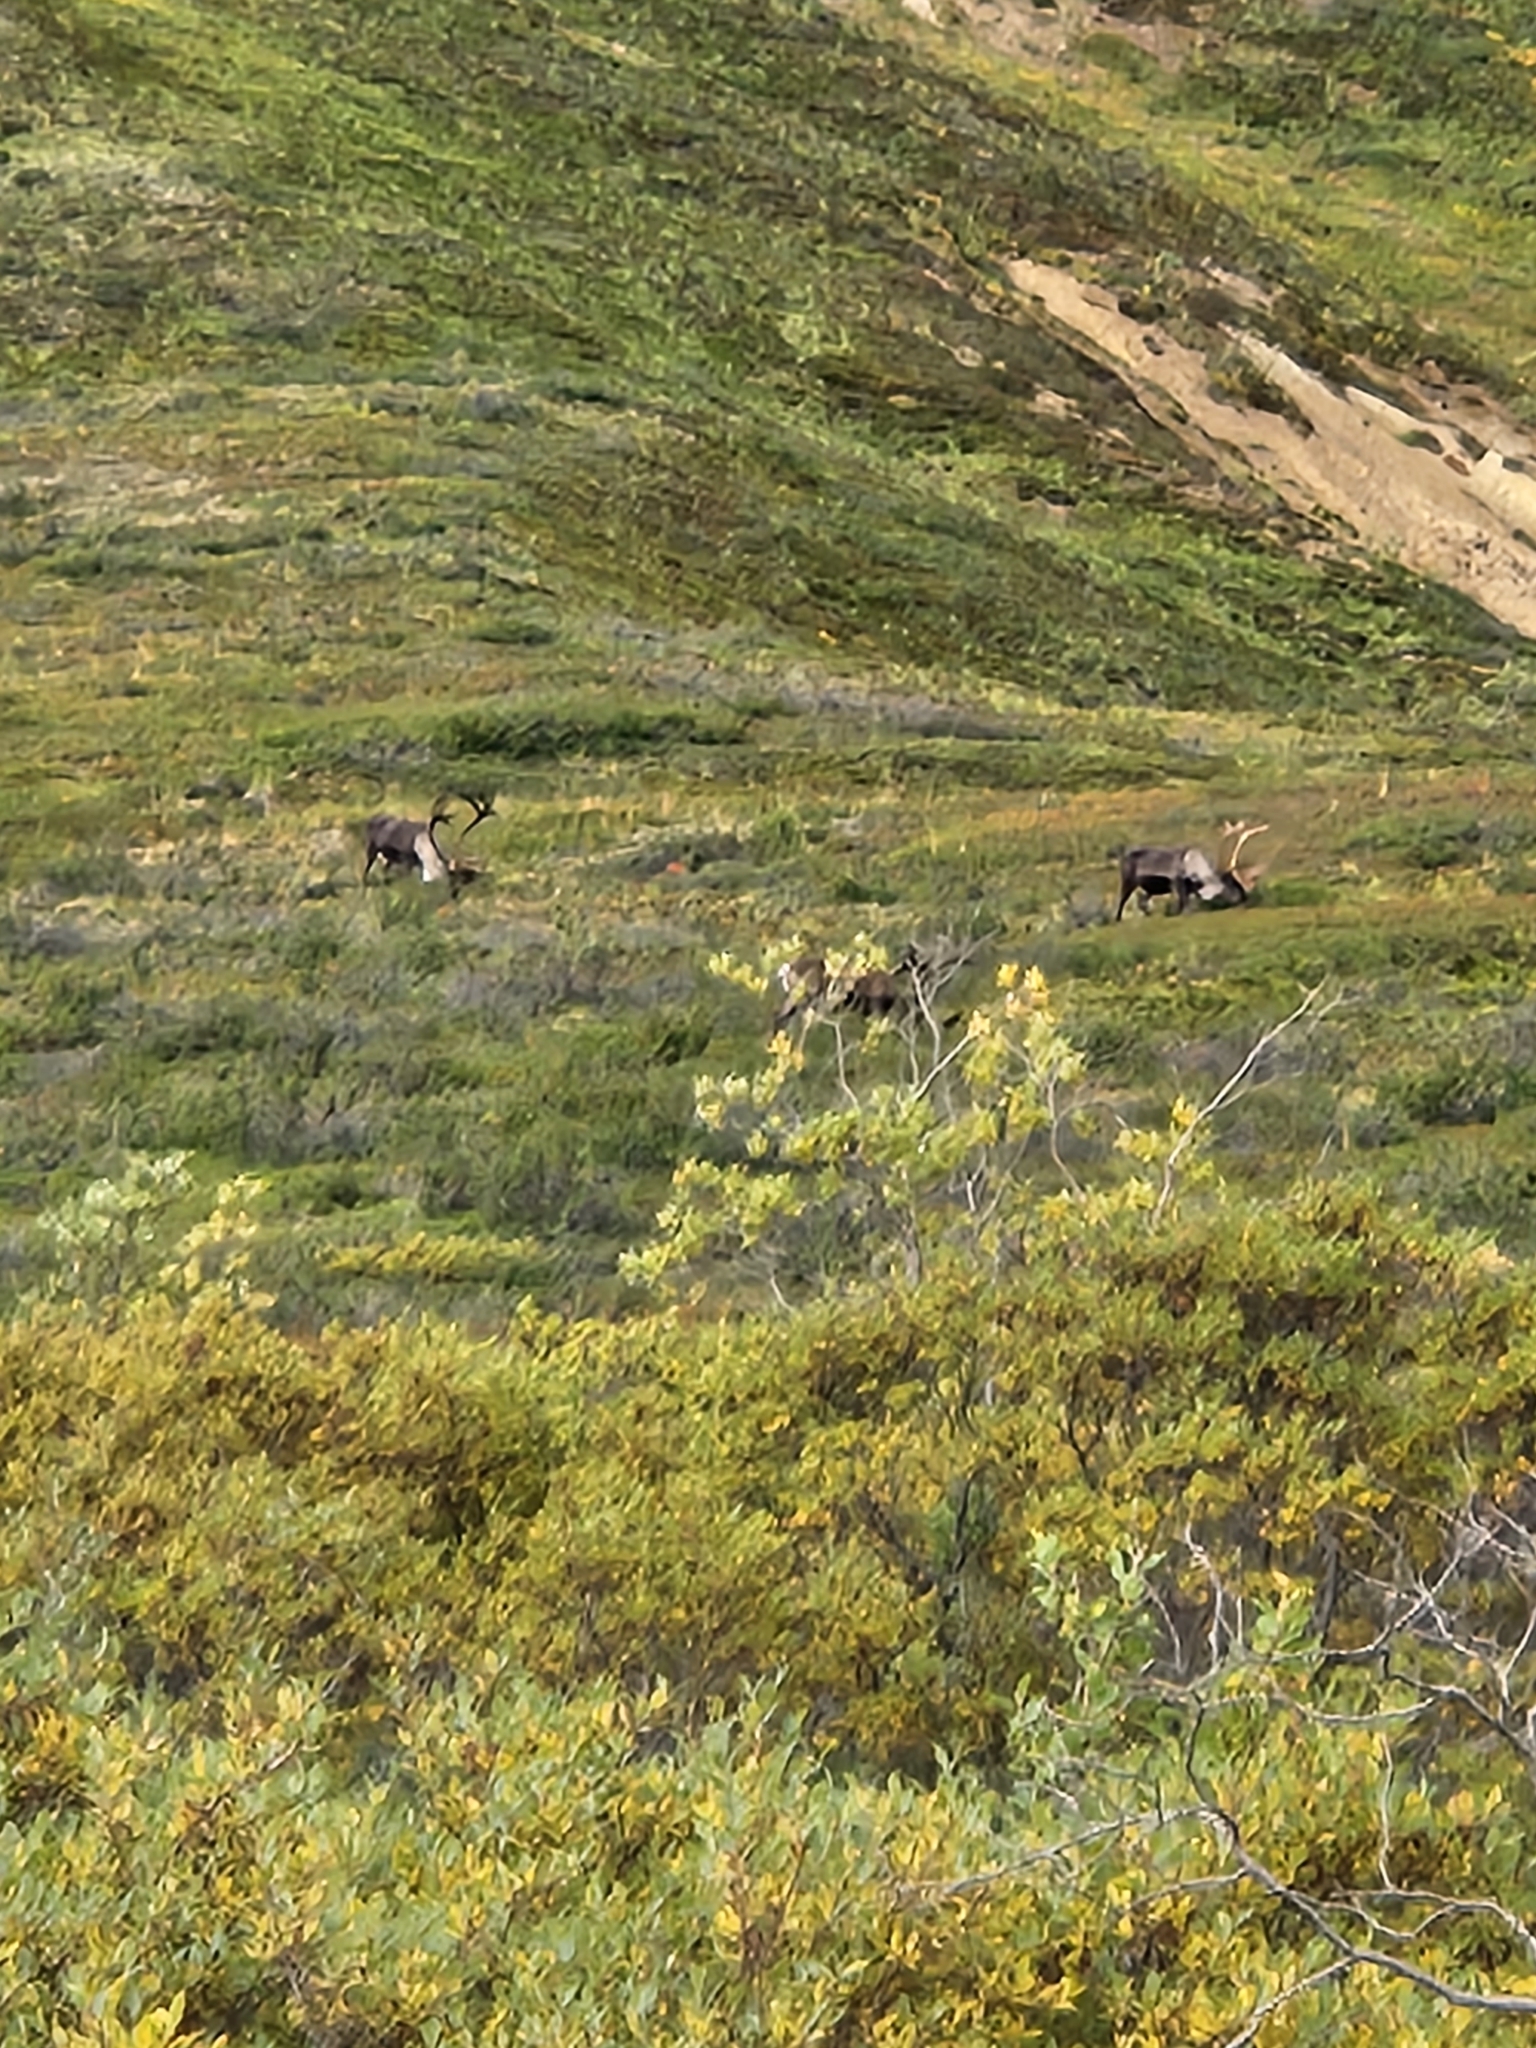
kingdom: Animalia
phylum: Chordata
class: Mammalia
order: Artiodactyla
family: Cervidae
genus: Rangifer
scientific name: Rangifer tarandus
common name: Reindeer
